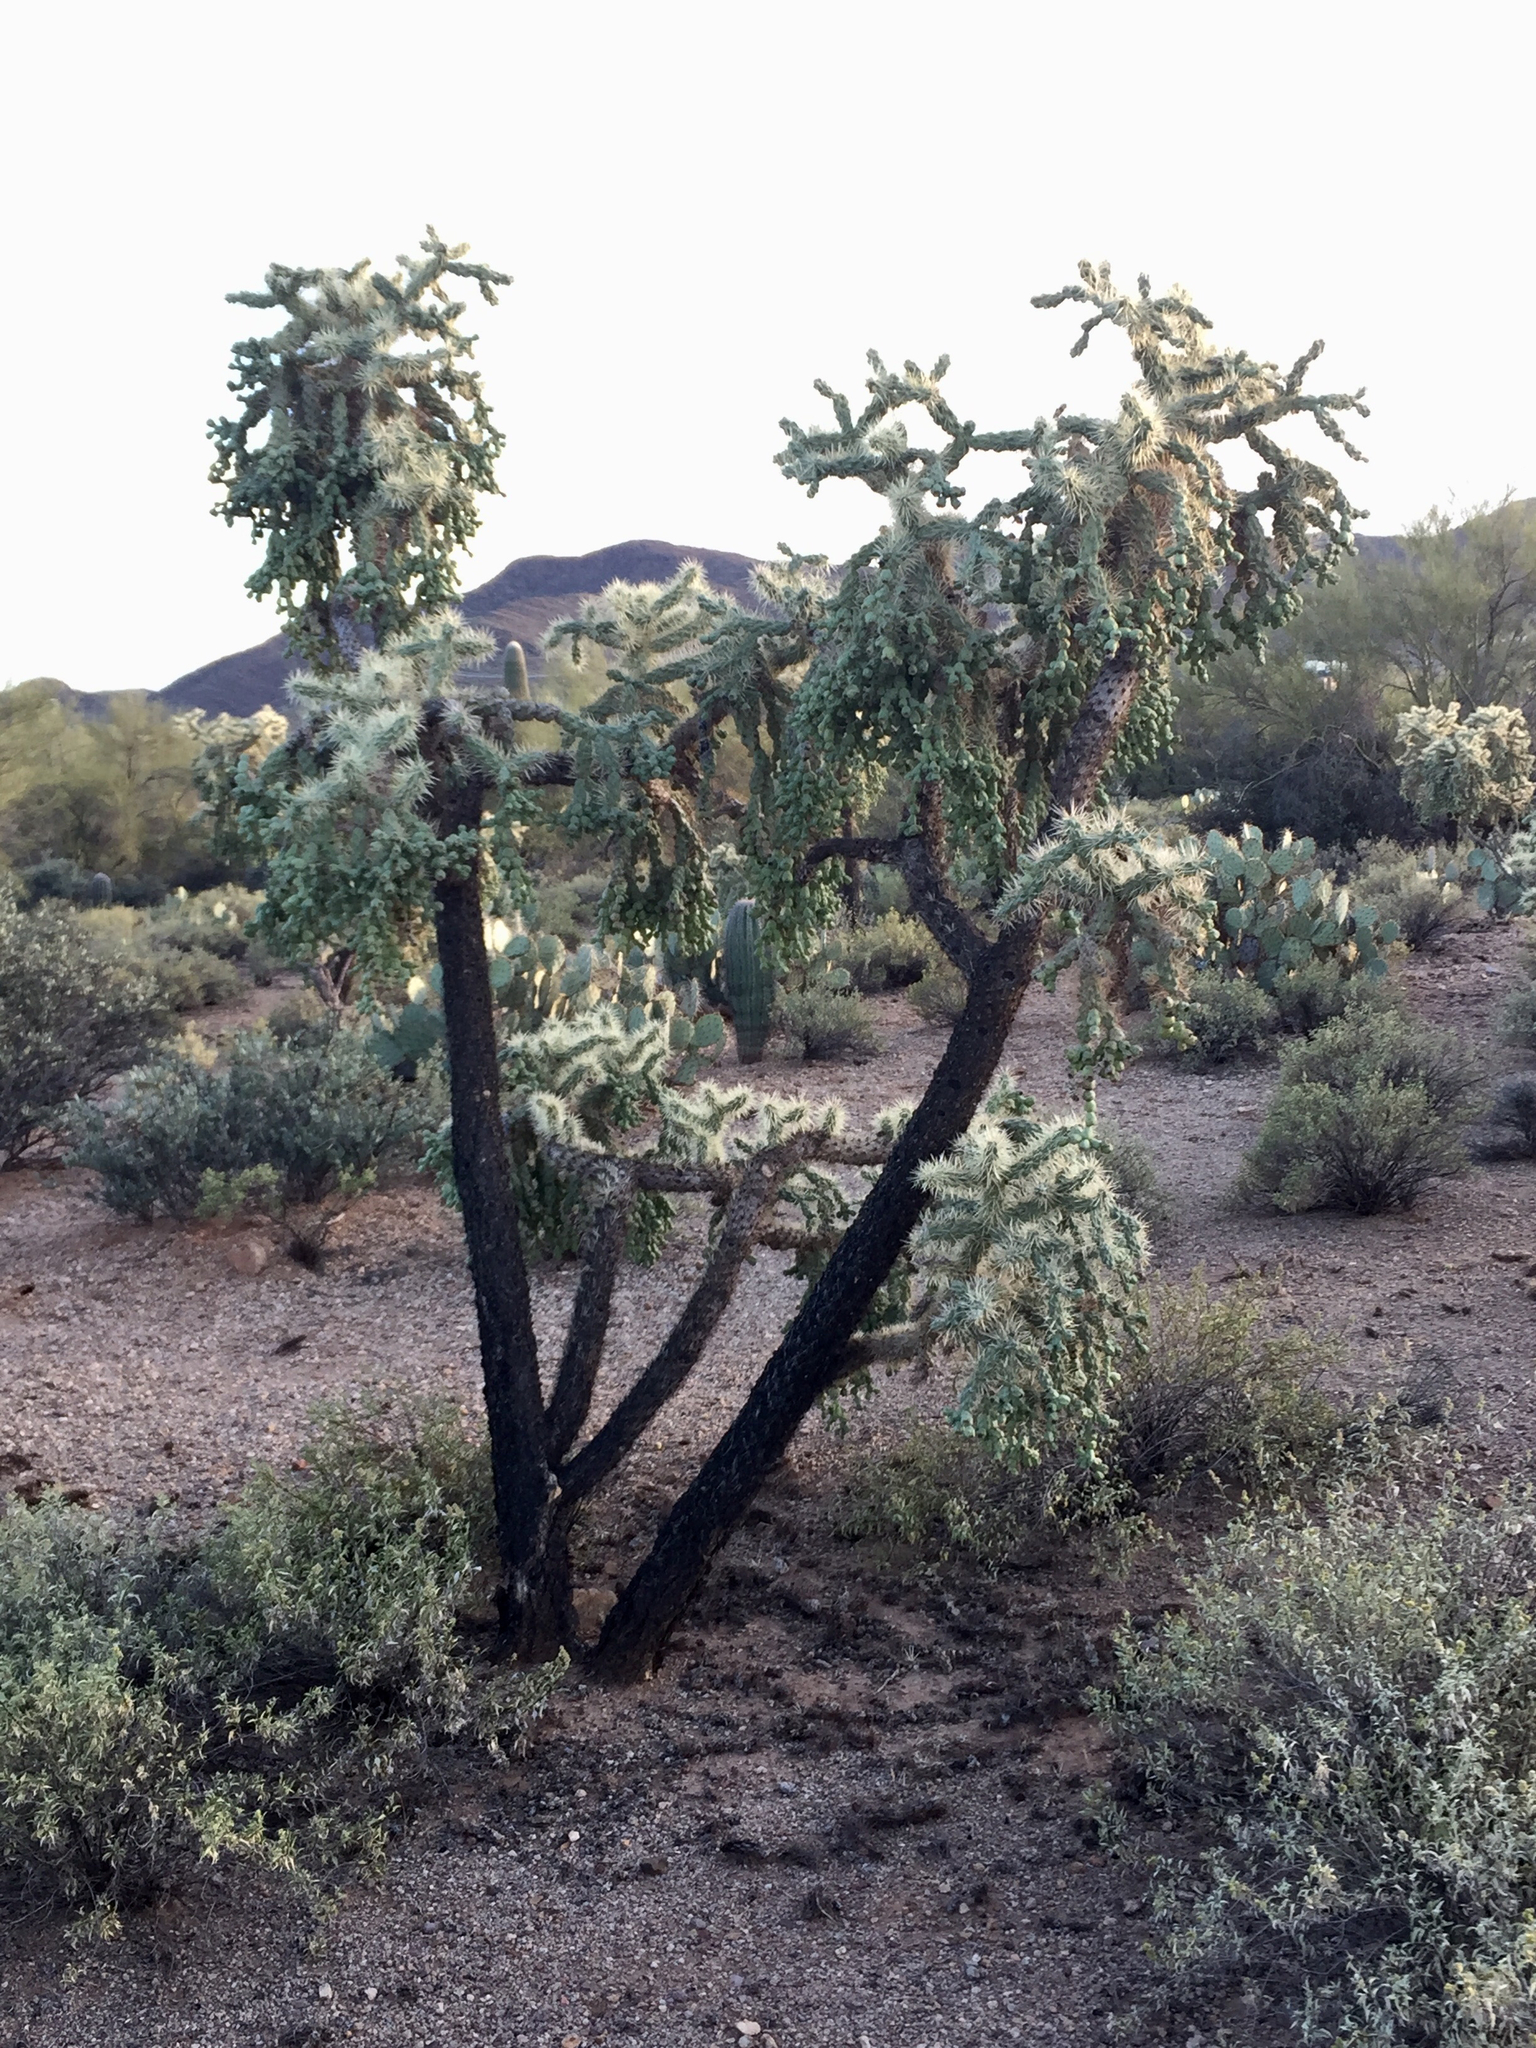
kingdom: Plantae
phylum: Tracheophyta
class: Magnoliopsida
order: Caryophyllales
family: Cactaceae
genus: Cylindropuntia
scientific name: Cylindropuntia fulgida
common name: Jumping cholla
